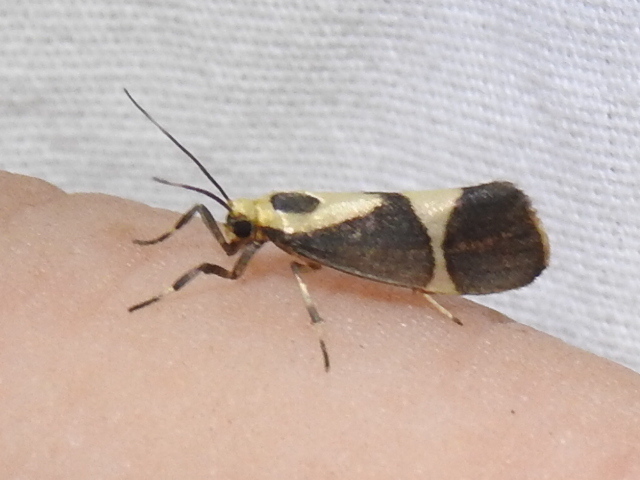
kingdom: Animalia
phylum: Arthropoda
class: Insecta
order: Lepidoptera
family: Erebidae
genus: Cisthene
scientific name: Cisthene subrufa
